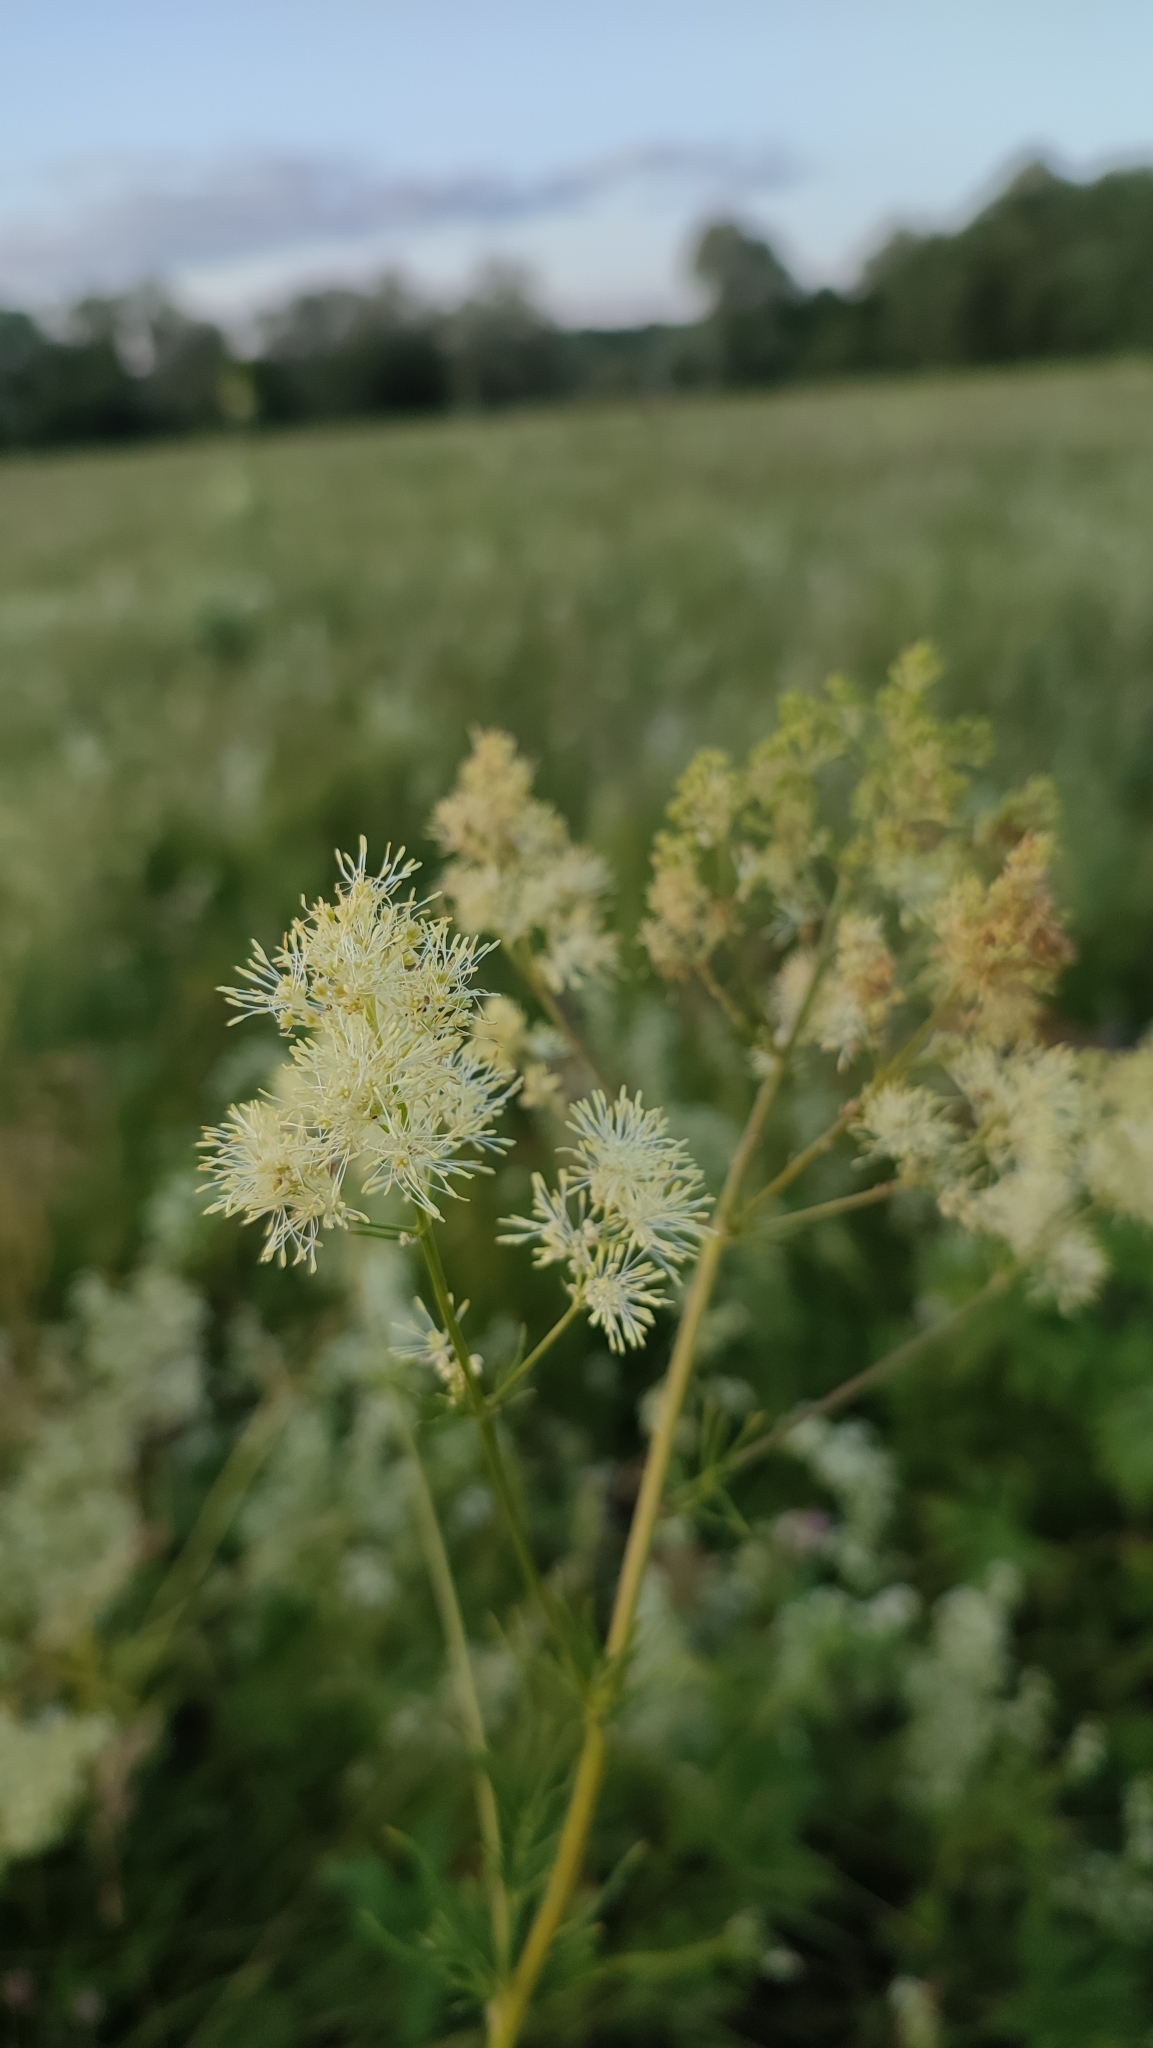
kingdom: Plantae
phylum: Tracheophyta
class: Magnoliopsida
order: Ranunculales
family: Ranunculaceae
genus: Thalictrum
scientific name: Thalictrum lucidum
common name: Shining meadow-rue
